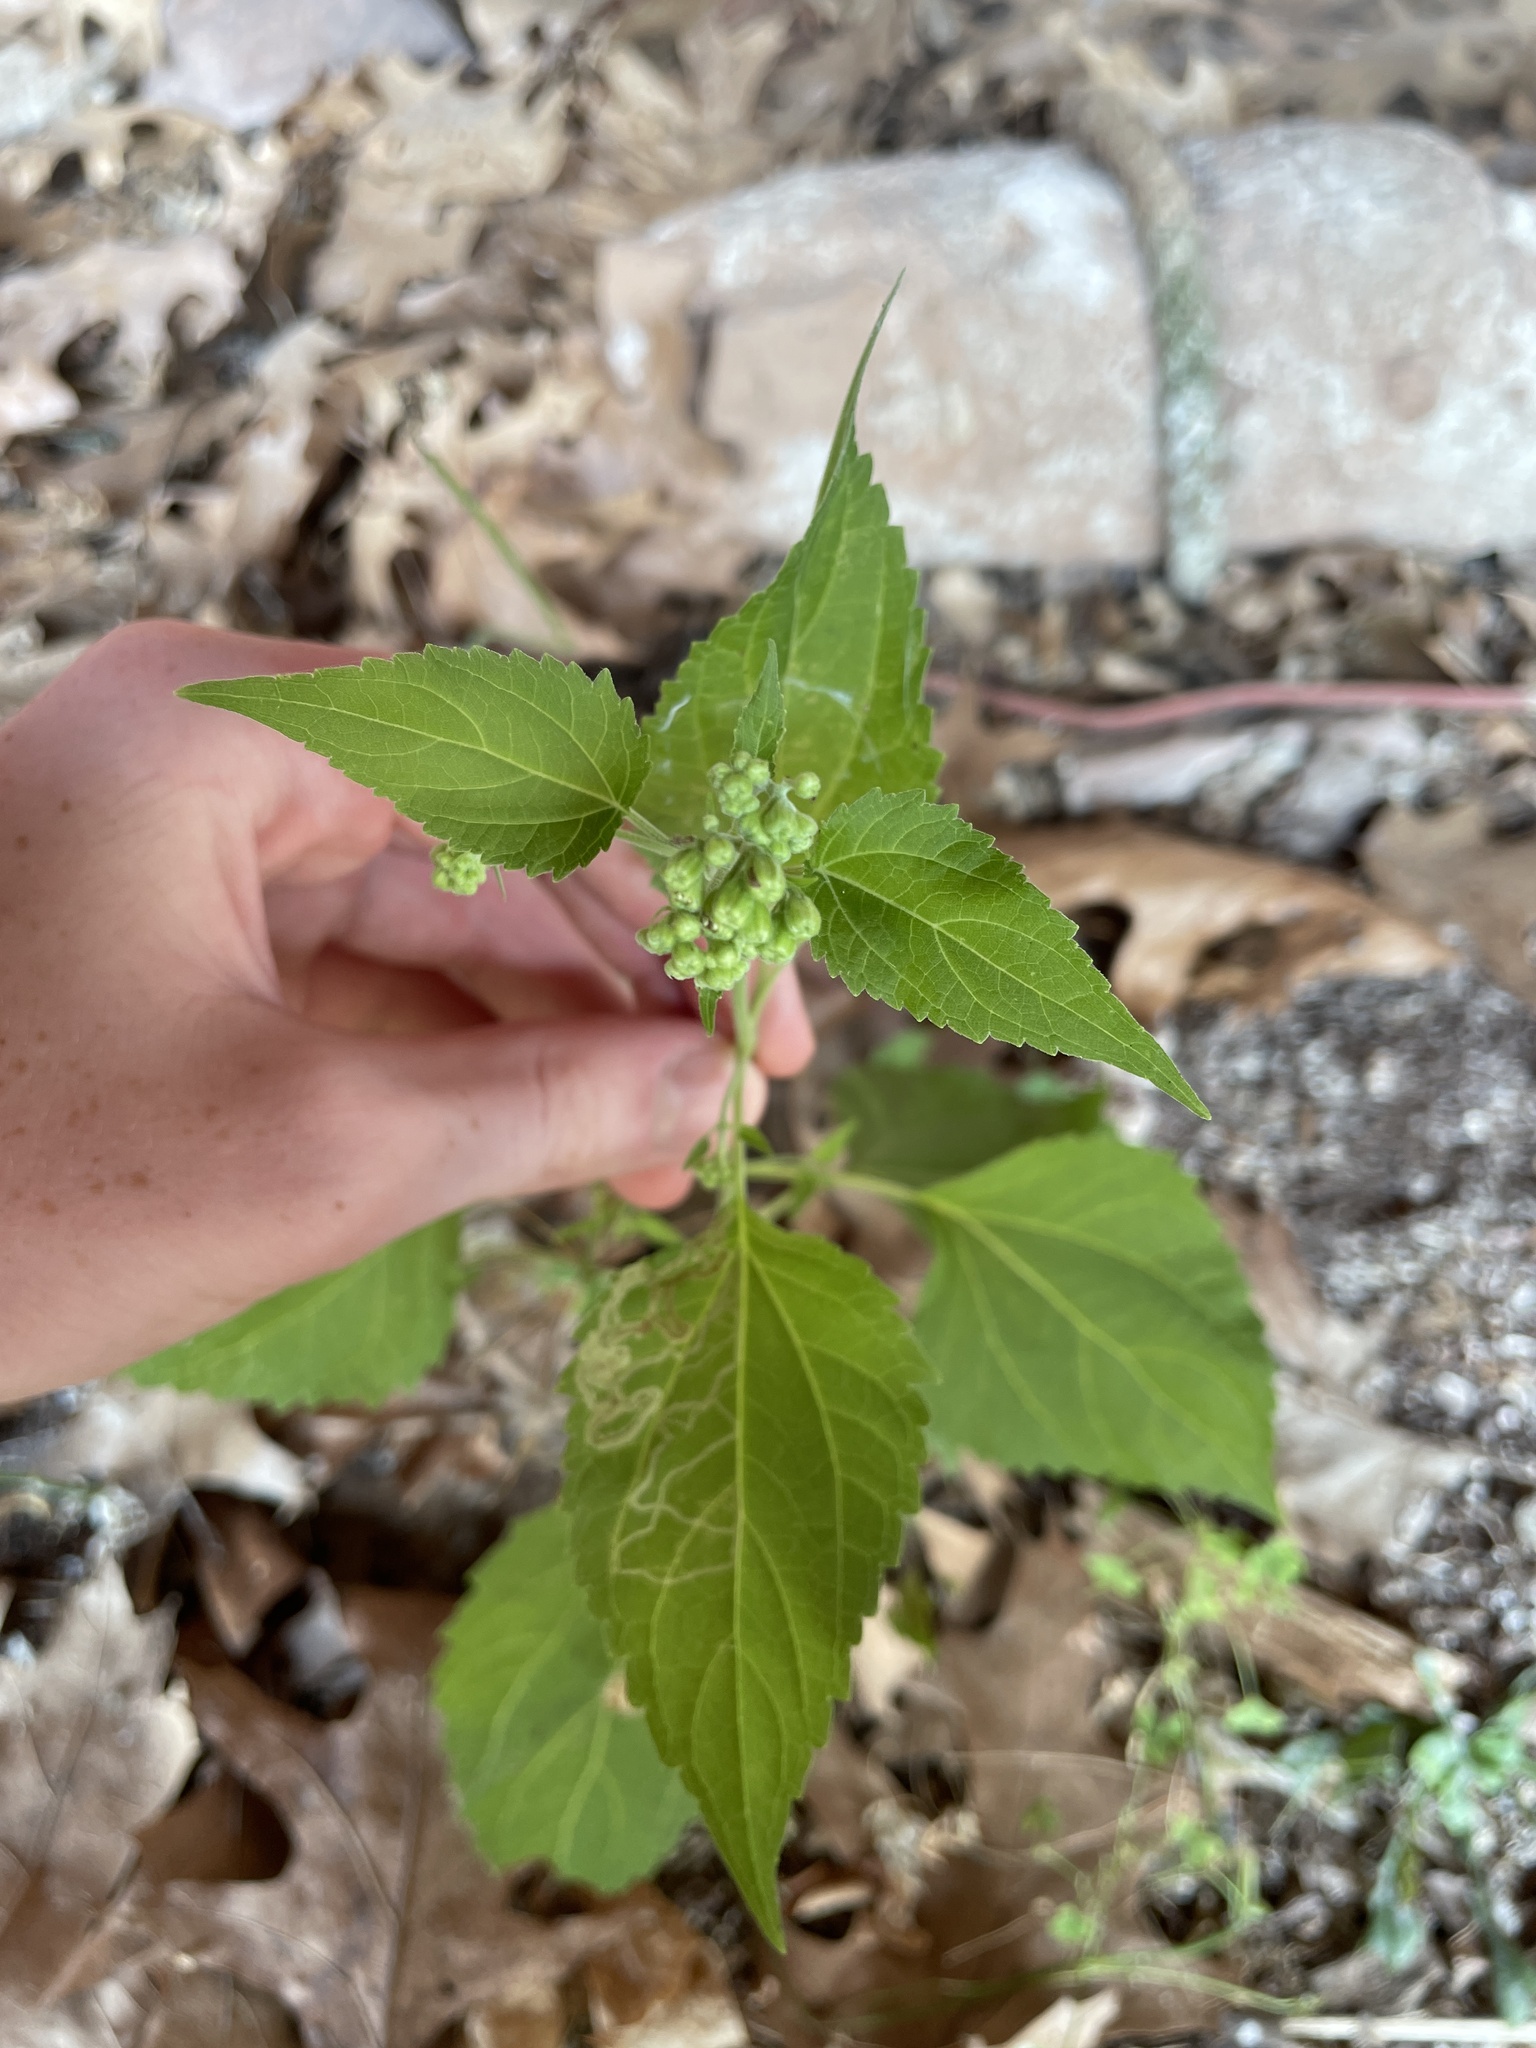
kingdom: Plantae
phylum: Tracheophyta
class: Magnoliopsida
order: Asterales
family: Asteraceae
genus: Ageratina
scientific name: Ageratina altissima
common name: White snakeroot
